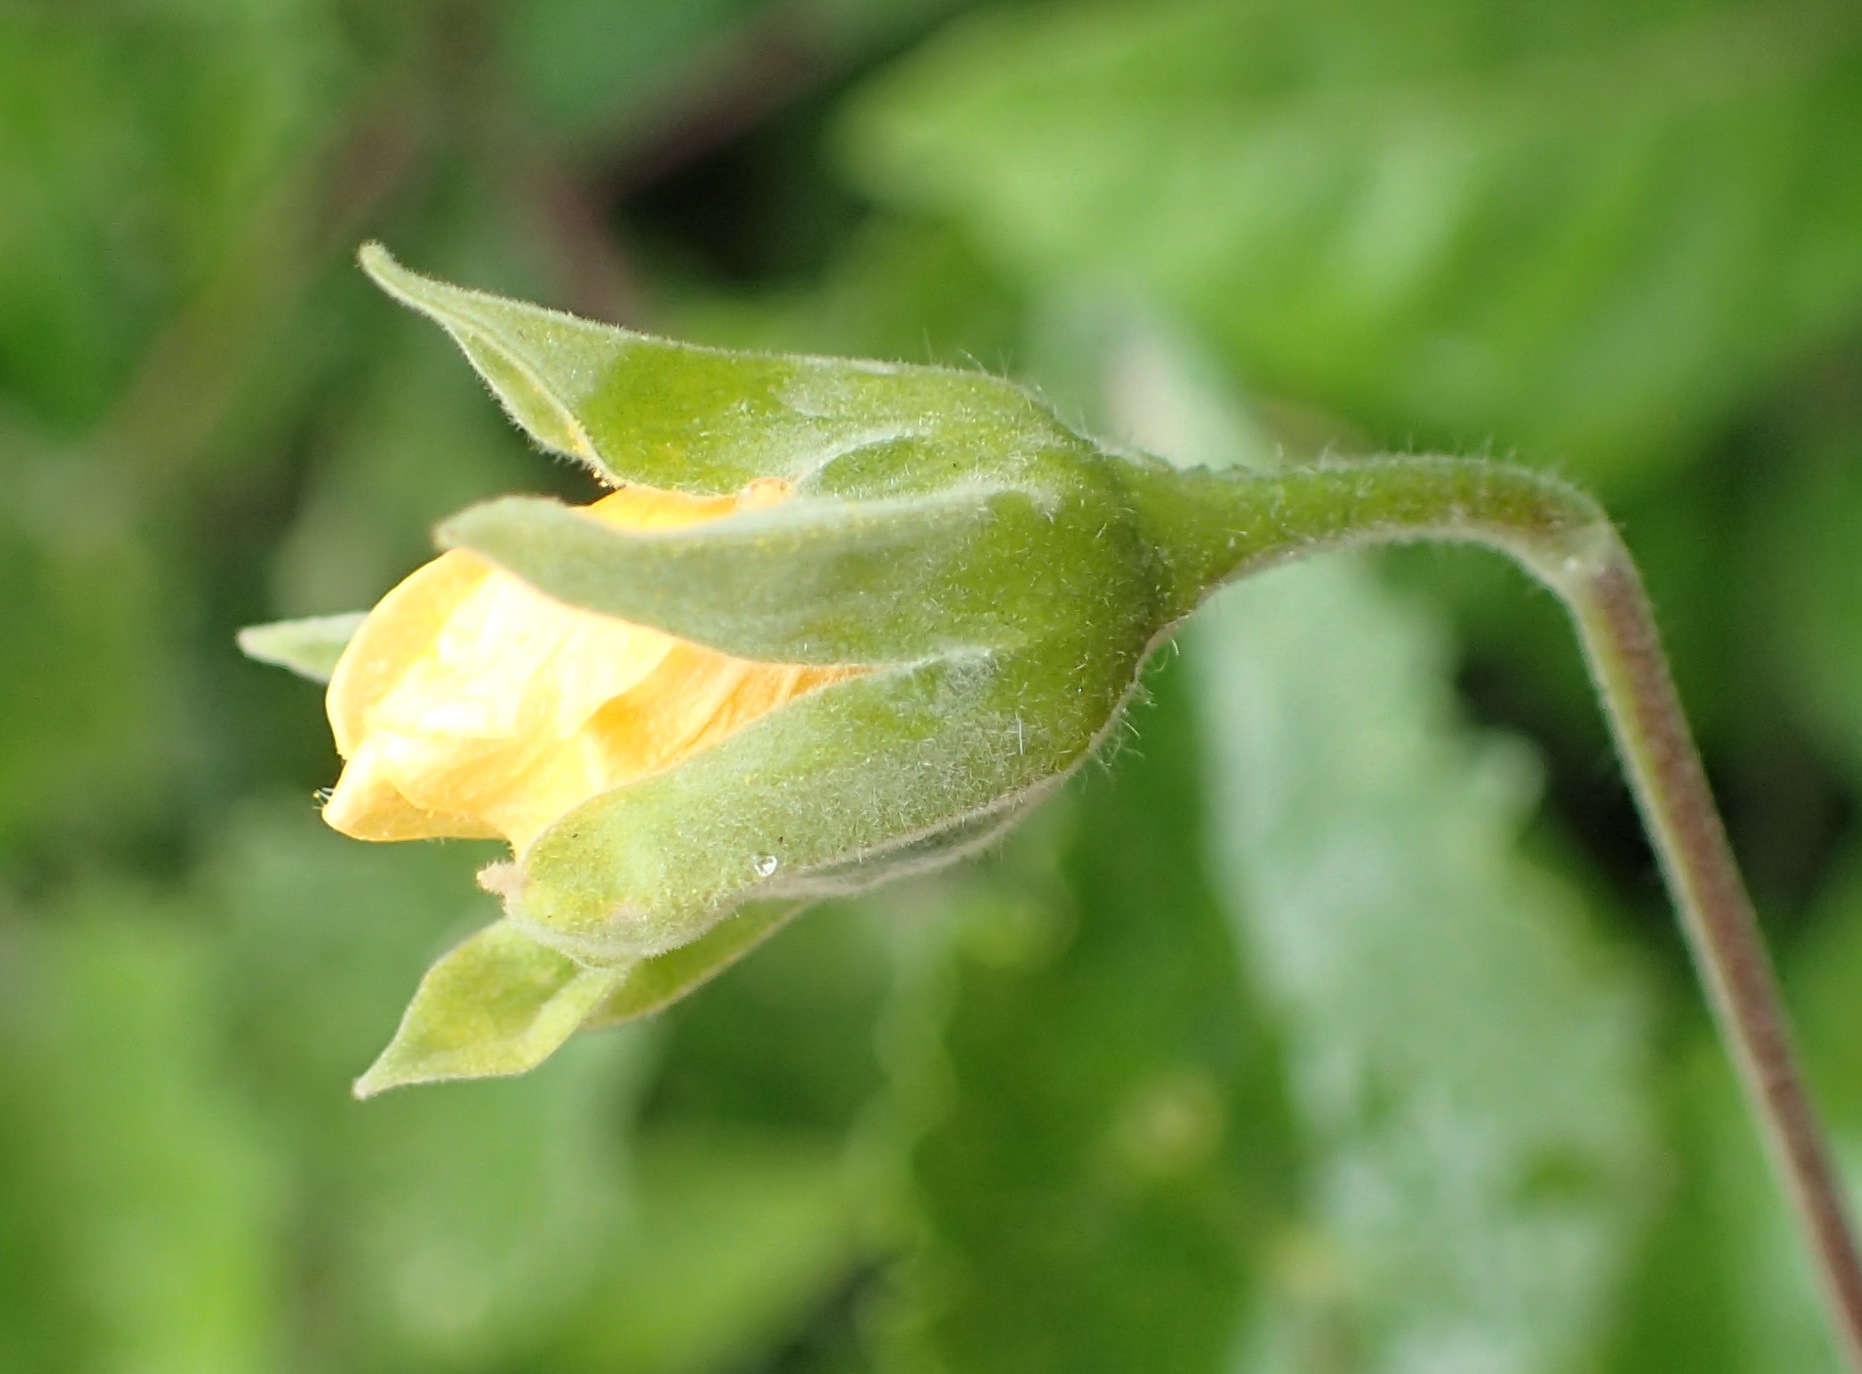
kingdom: Plantae
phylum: Tracheophyta
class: Magnoliopsida
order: Malvales
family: Malvaceae
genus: Abutilon
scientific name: Abutilon sonneratianum
